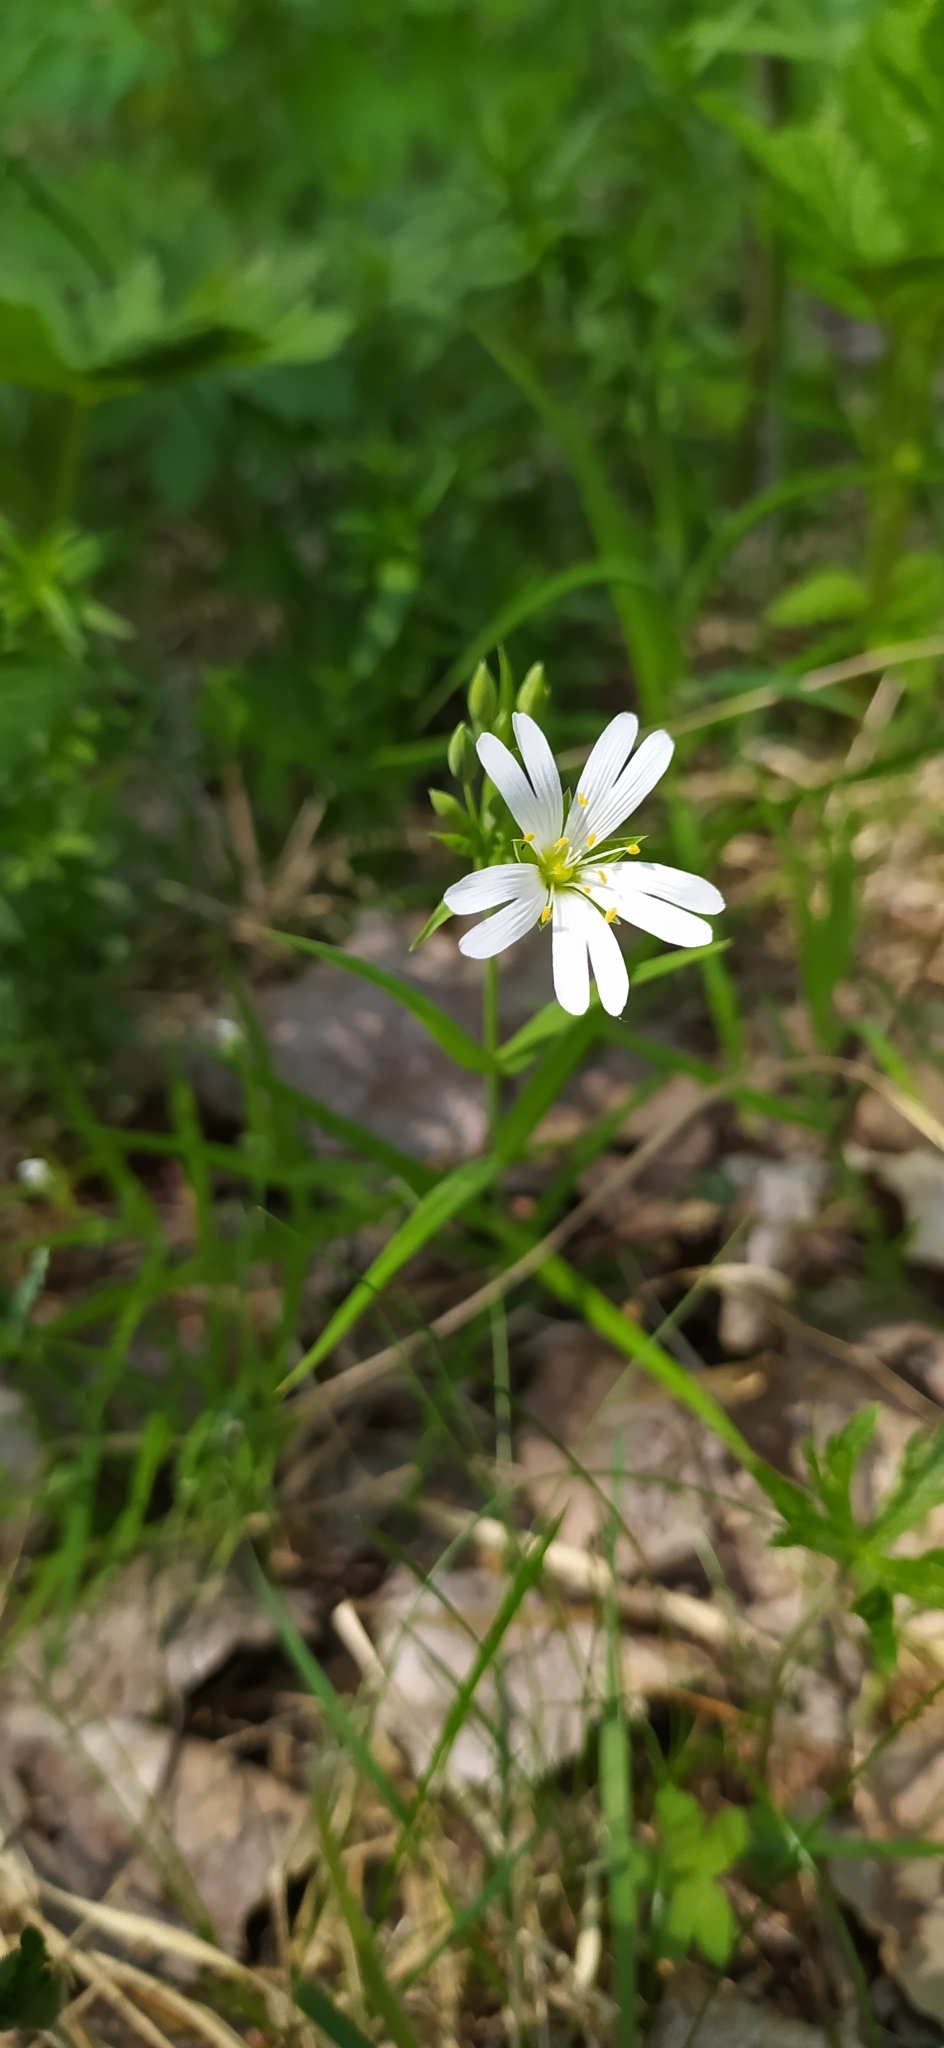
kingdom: Plantae
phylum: Tracheophyta
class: Magnoliopsida
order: Caryophyllales
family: Caryophyllaceae
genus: Rabelera
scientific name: Rabelera holostea
